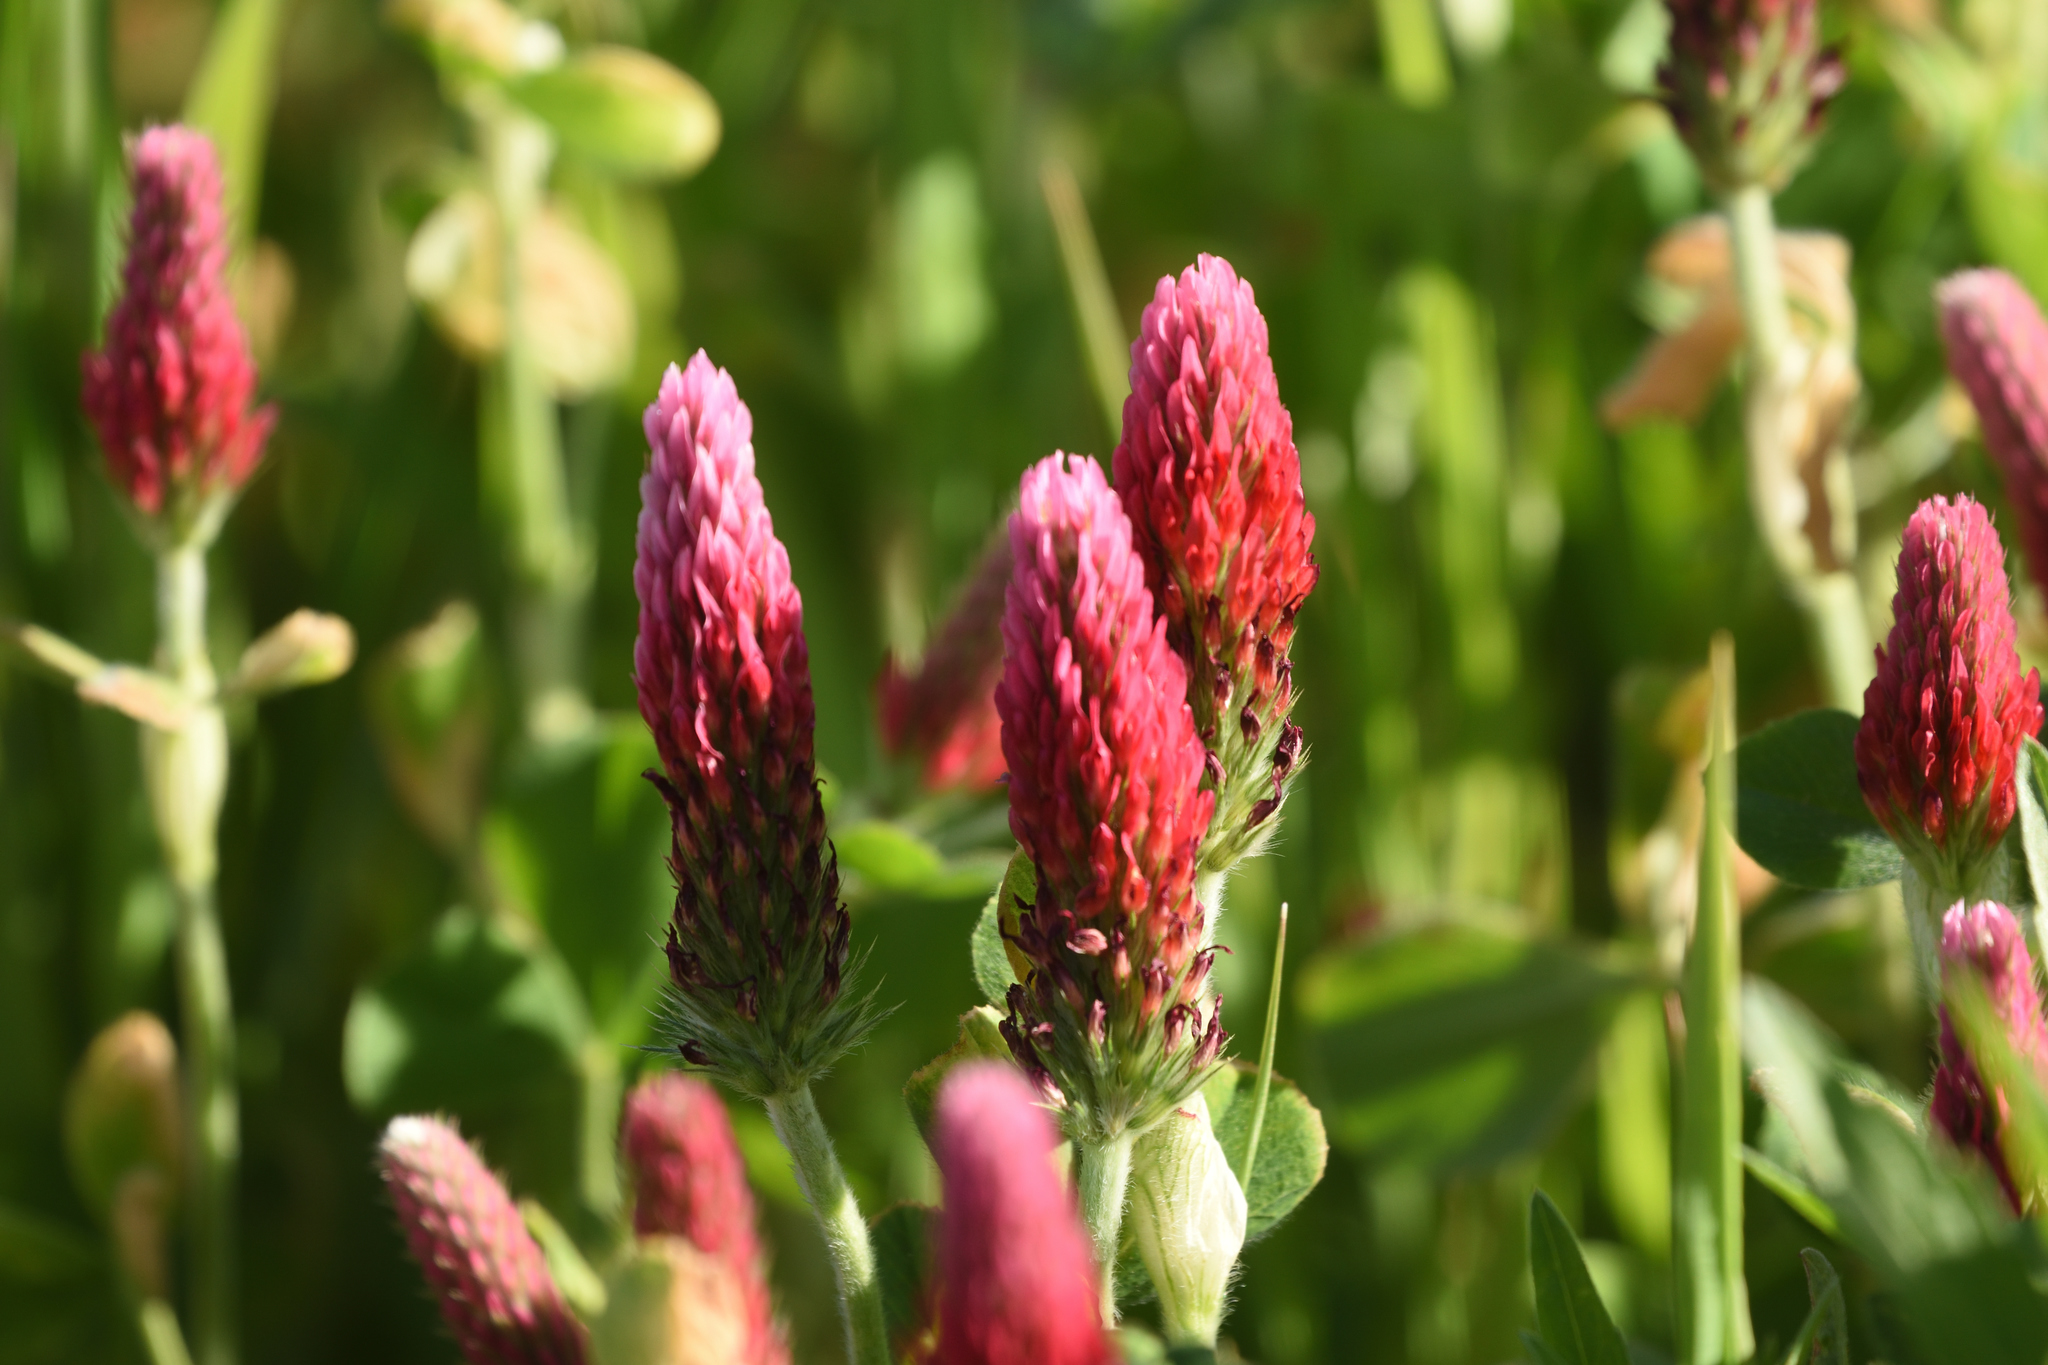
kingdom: Plantae
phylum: Tracheophyta
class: Magnoliopsida
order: Fabales
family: Fabaceae
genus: Trifolium
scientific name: Trifolium incarnatum
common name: Crimson clover
